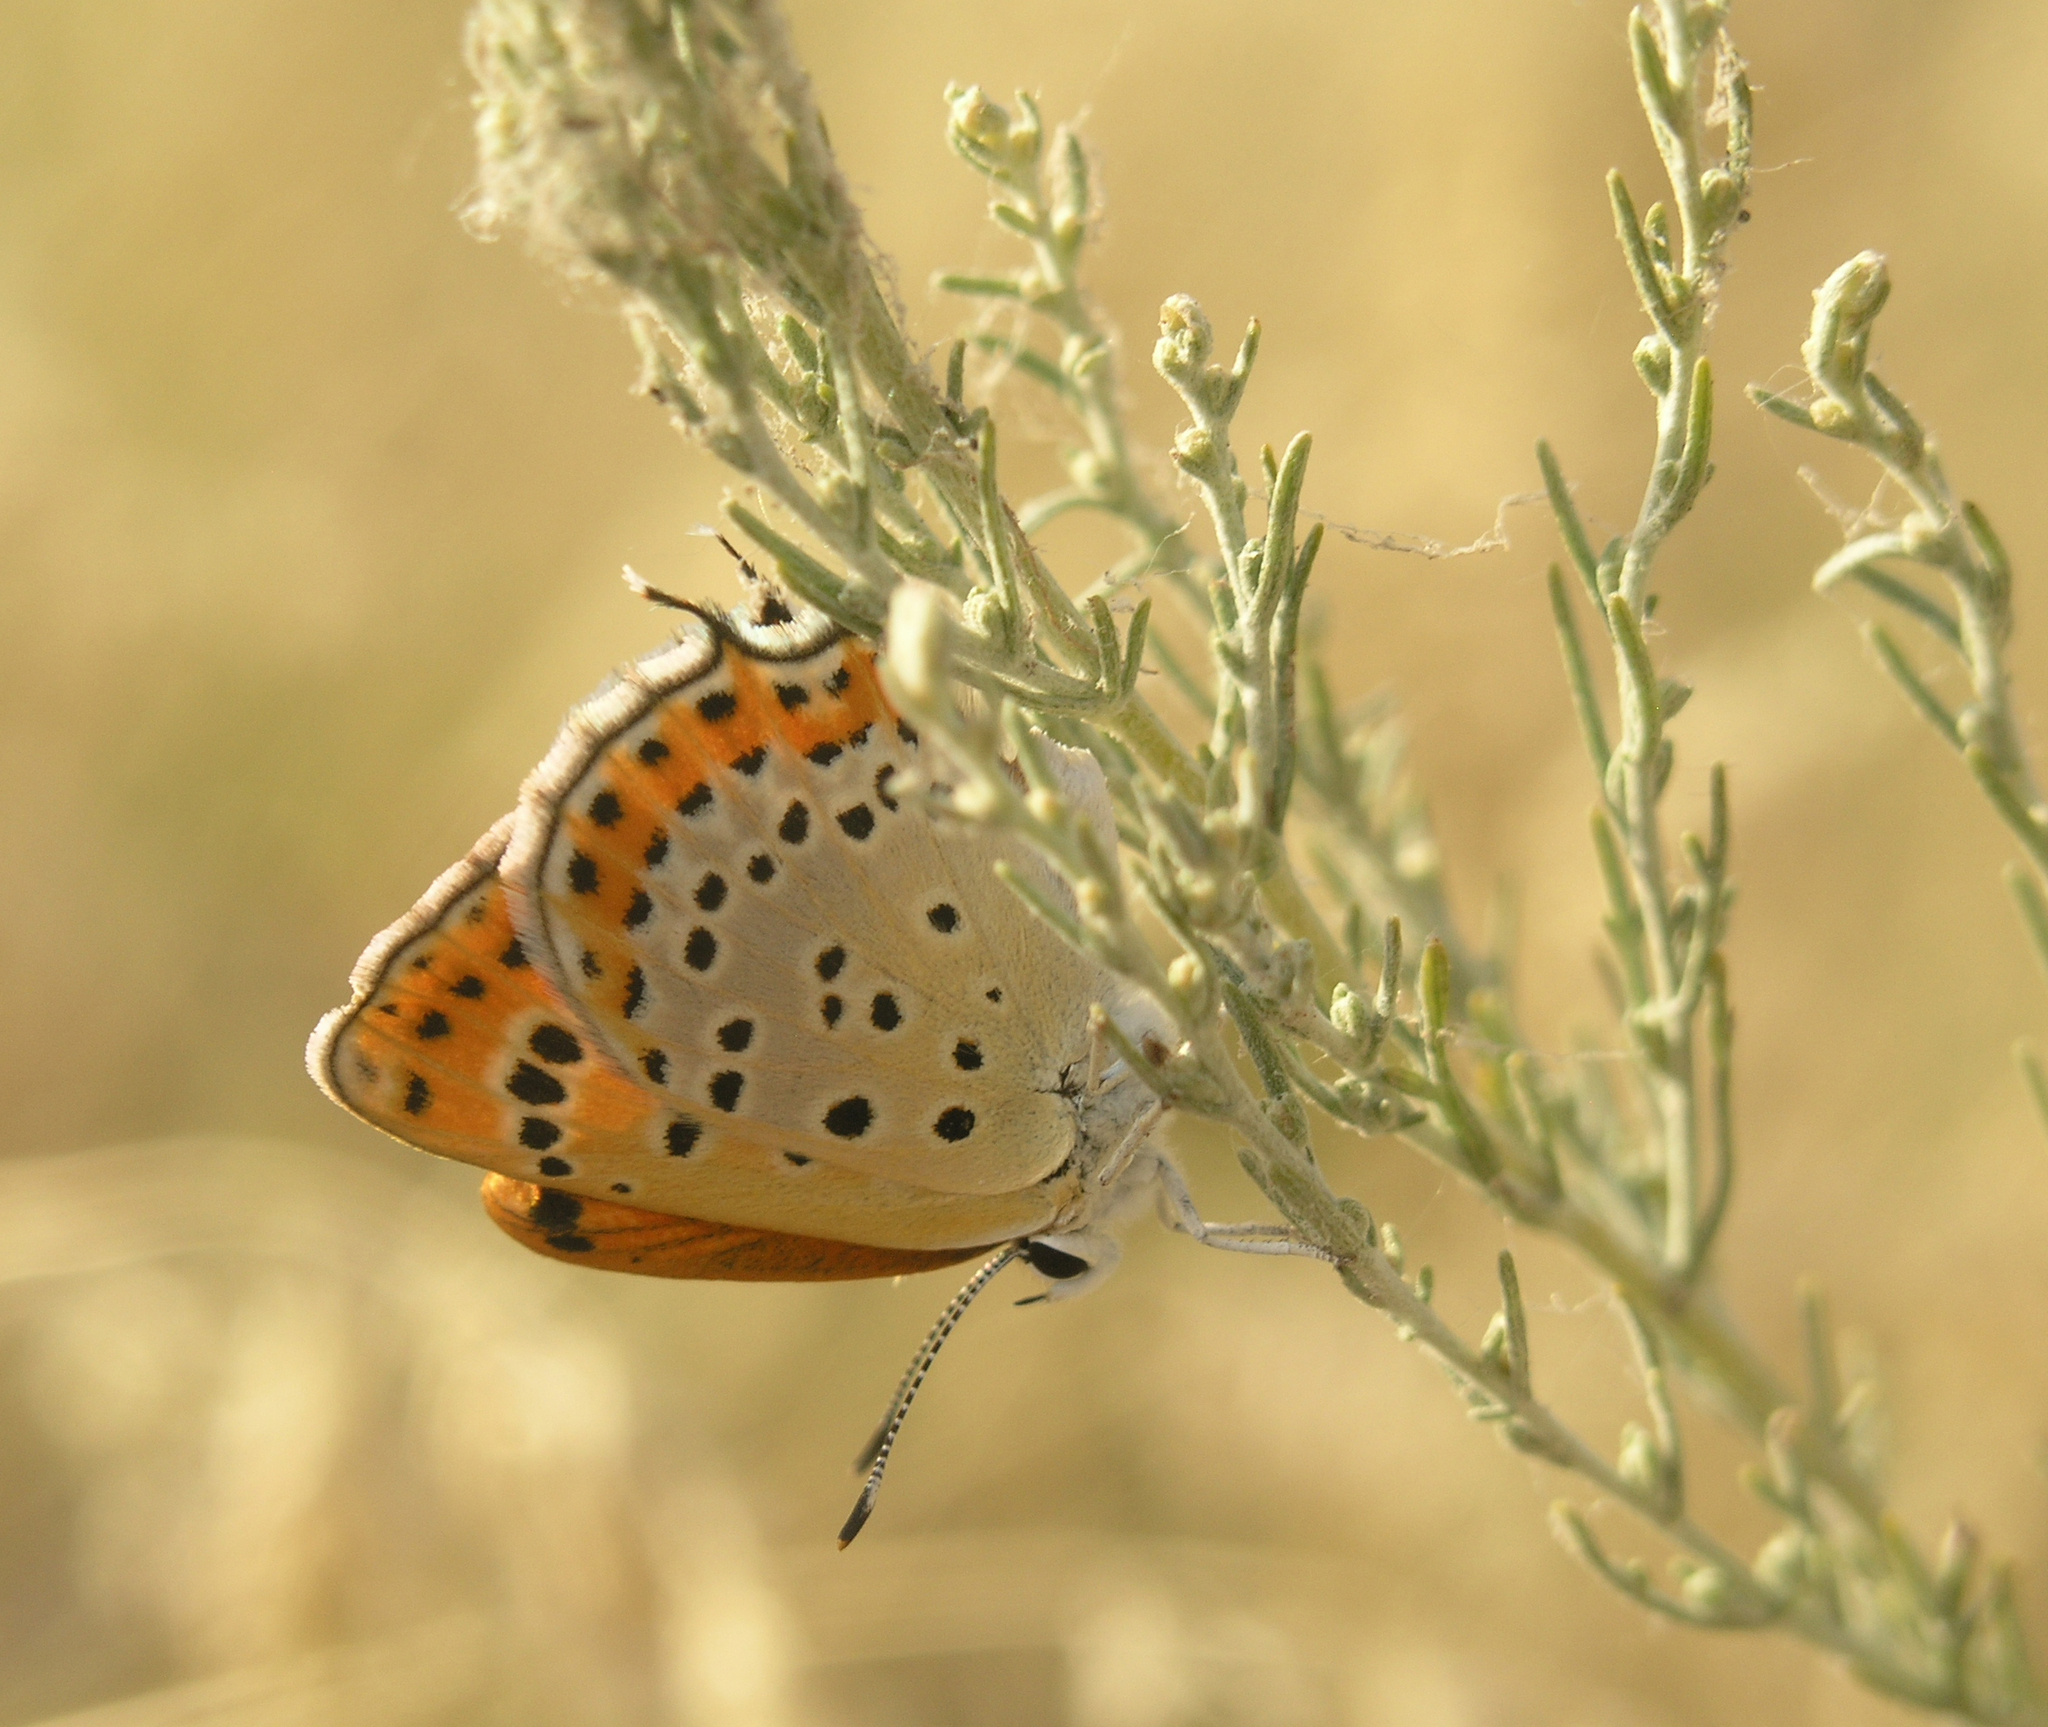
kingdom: Animalia
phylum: Arthropoda
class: Insecta
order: Lepidoptera
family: Lycaenidae
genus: Thersamonia
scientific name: Thersamonia thersamon
